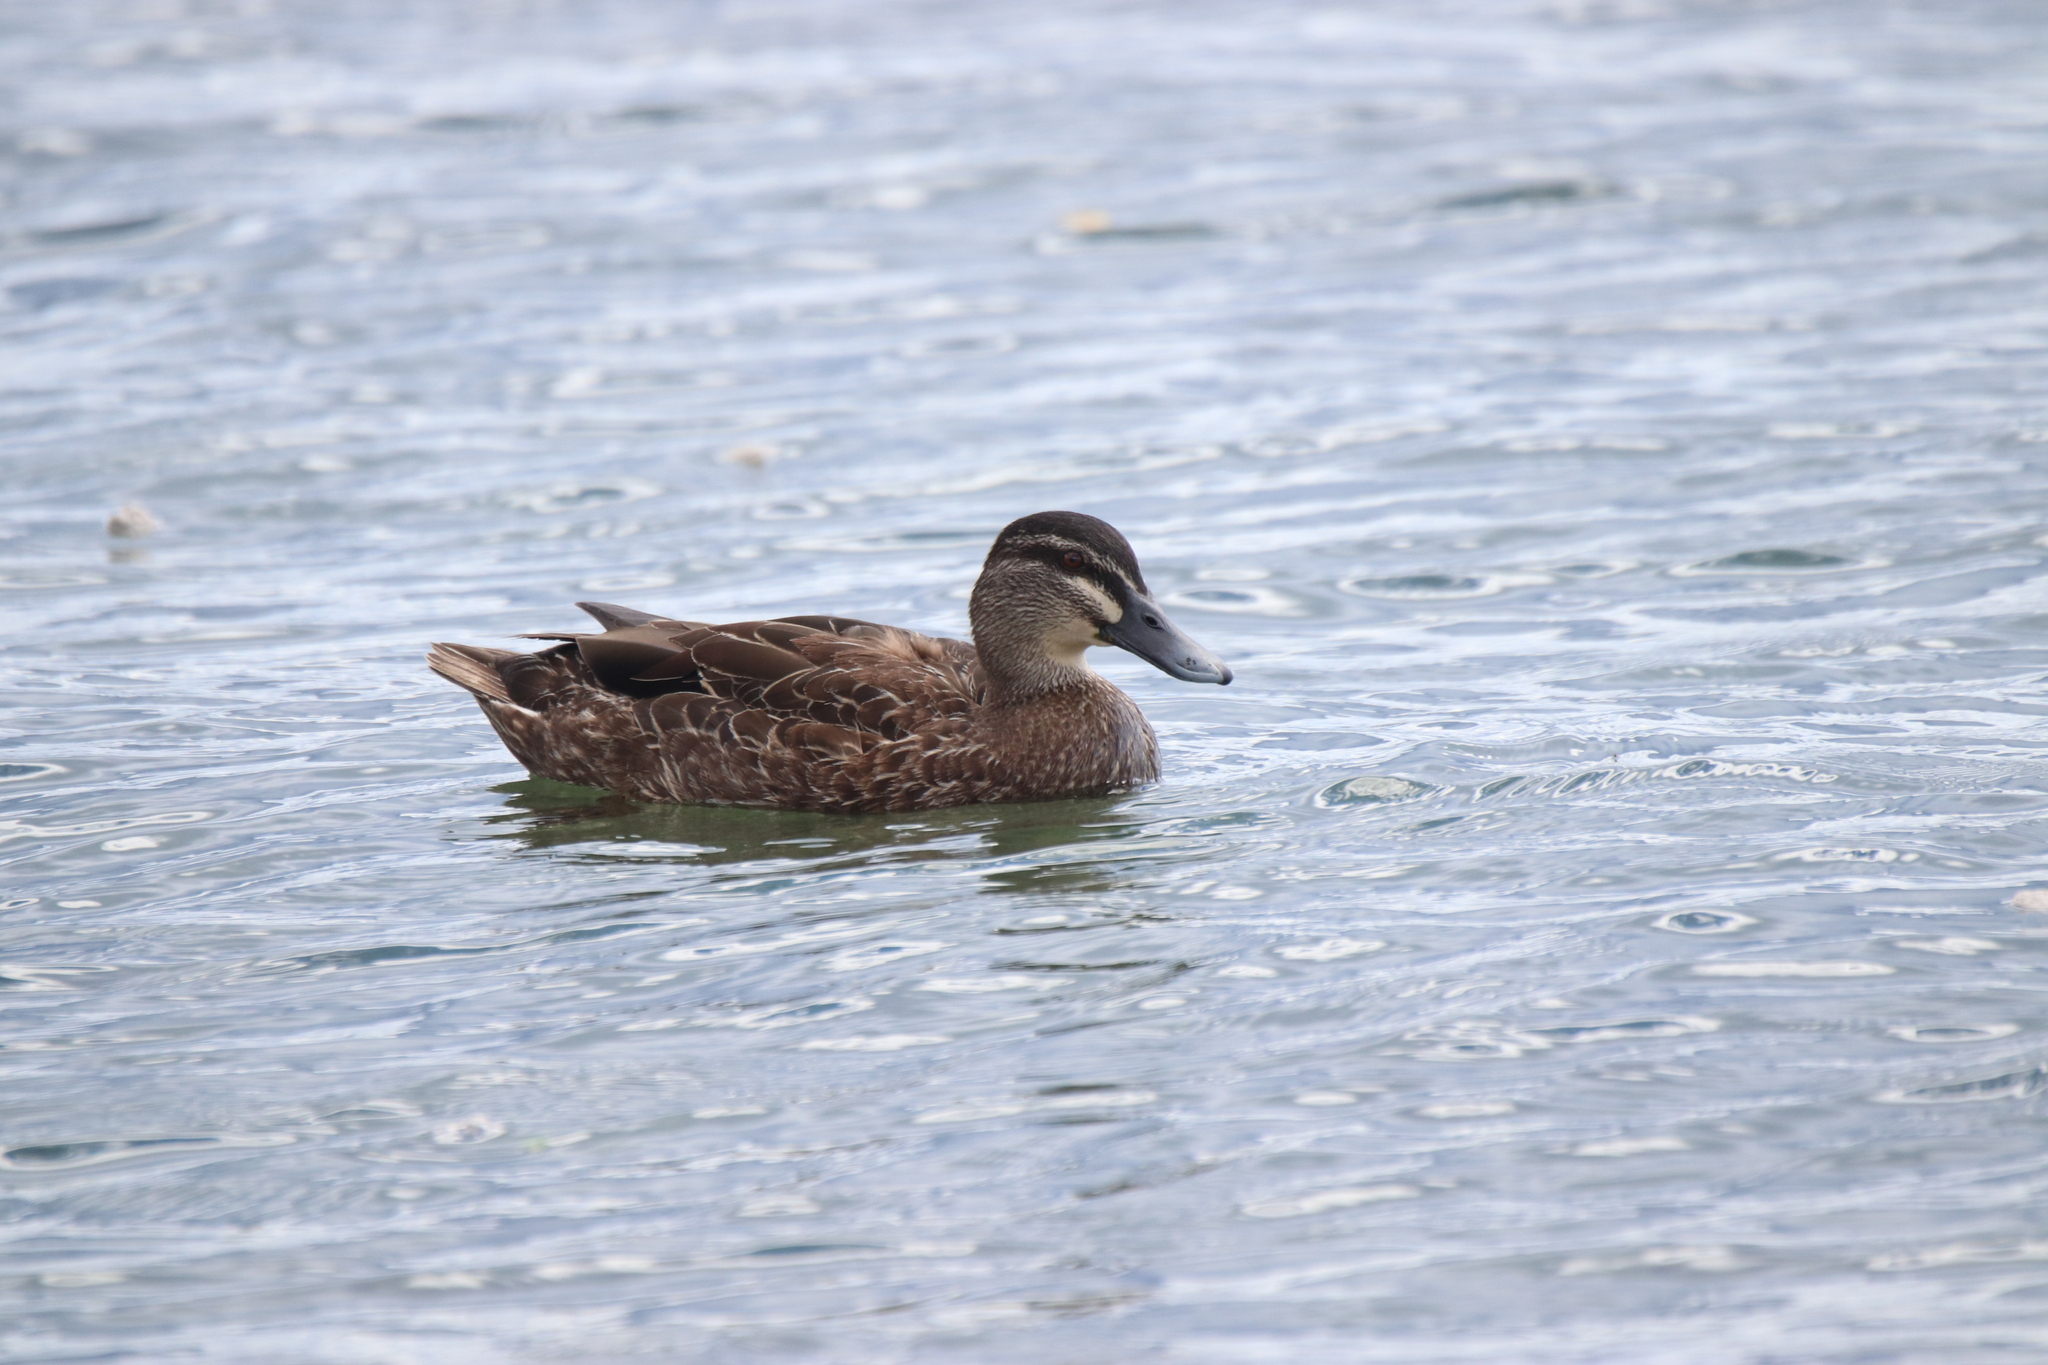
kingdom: Animalia
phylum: Chordata
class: Aves
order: Anseriformes
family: Anatidae
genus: Anas
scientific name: Anas
